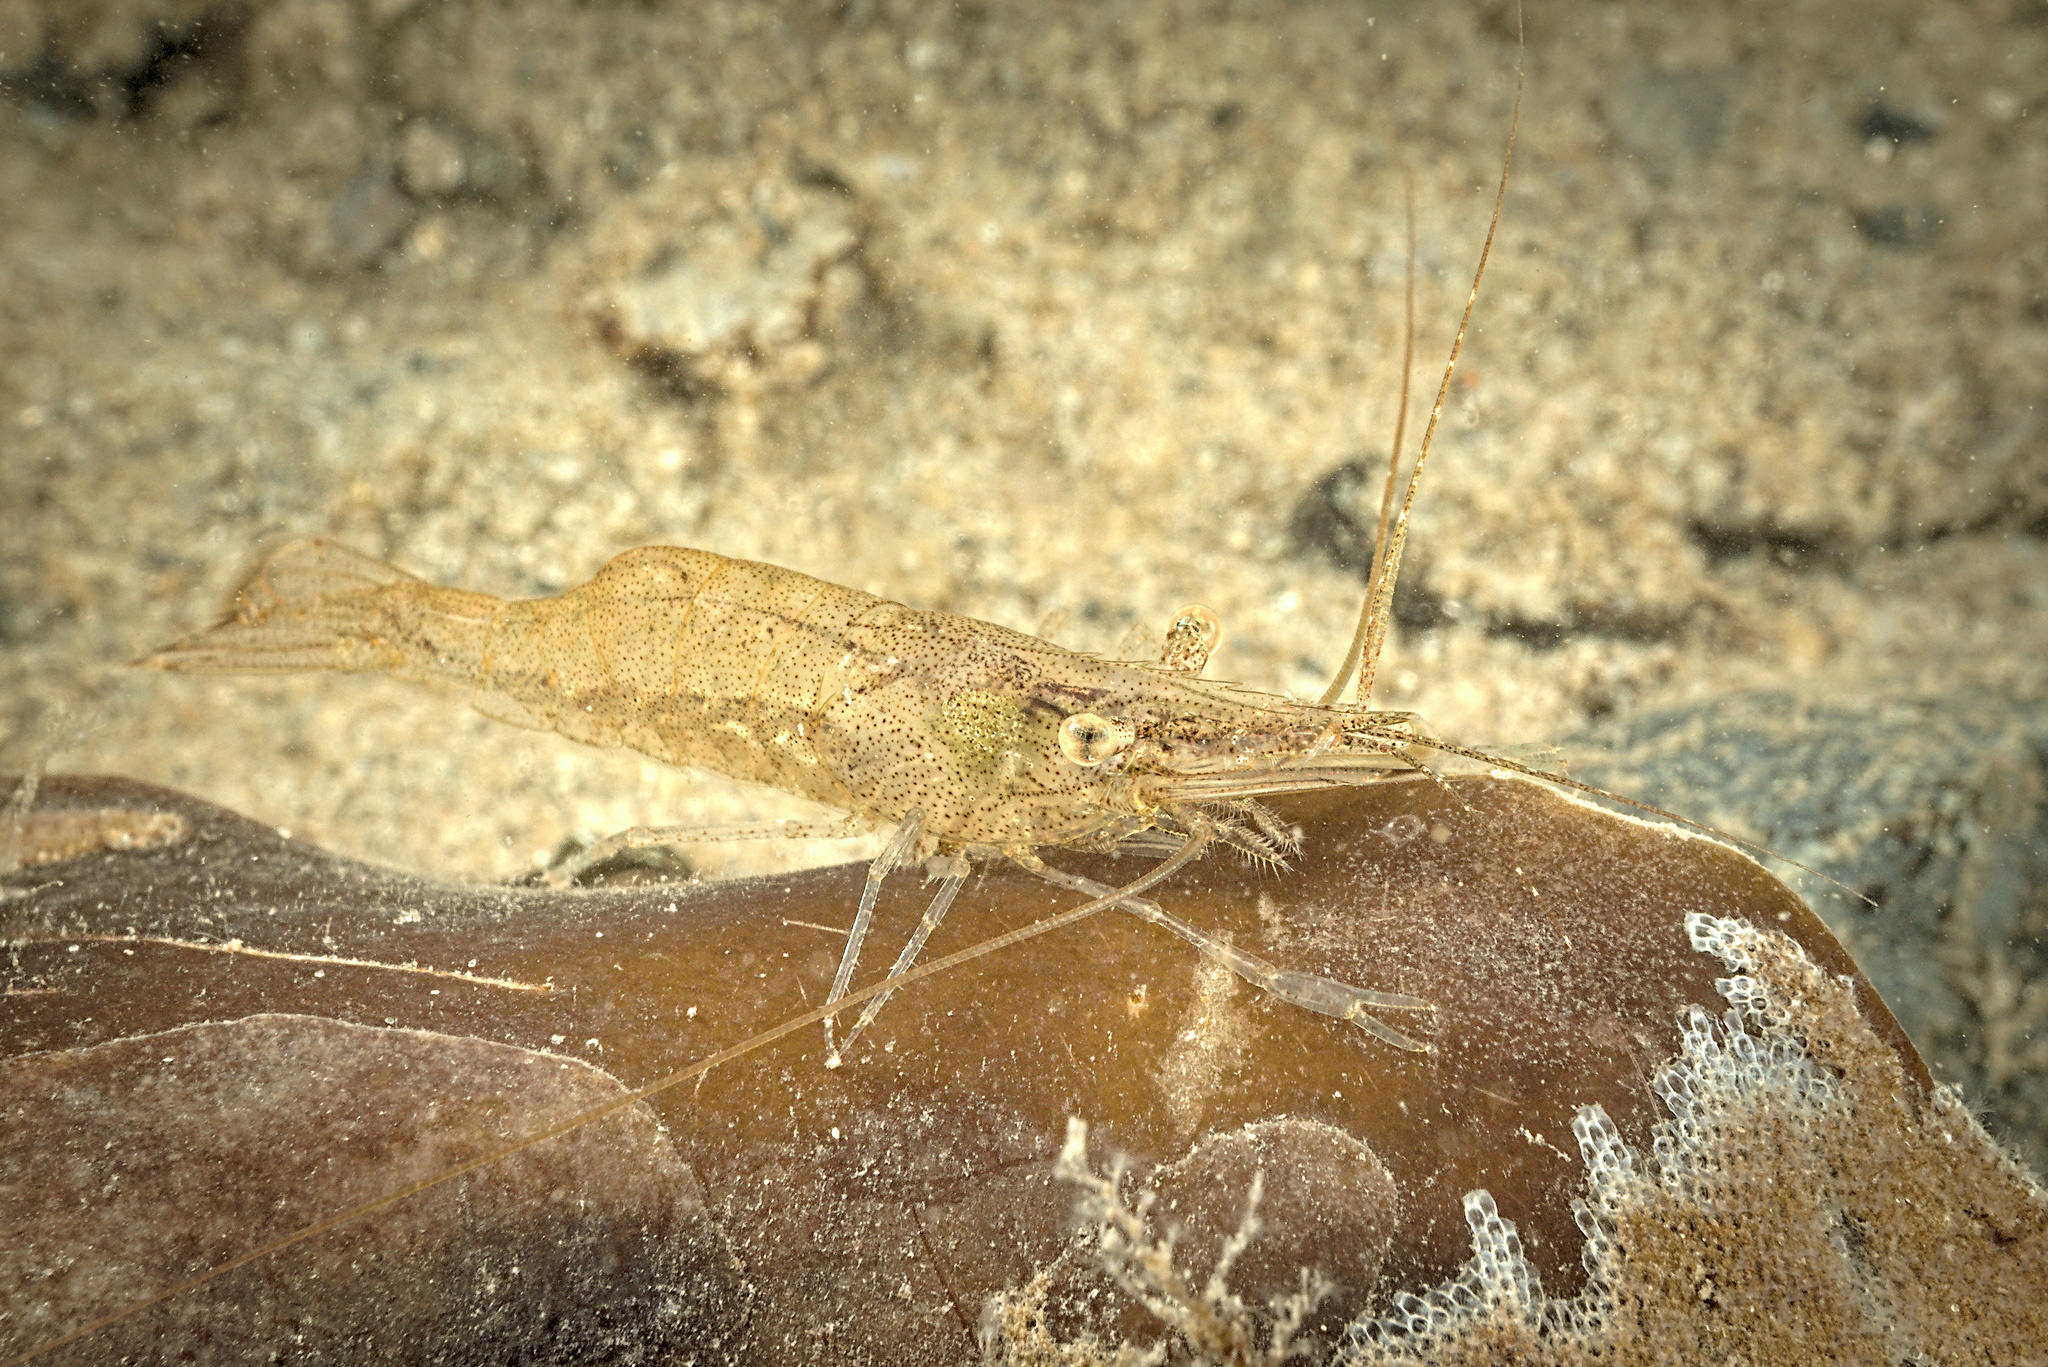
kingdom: Animalia
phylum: Arthropoda
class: Malacostraca
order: Decapoda
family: Palaemonidae
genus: Palaemon
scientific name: Palaemon adspersus
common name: Baltic prawn
